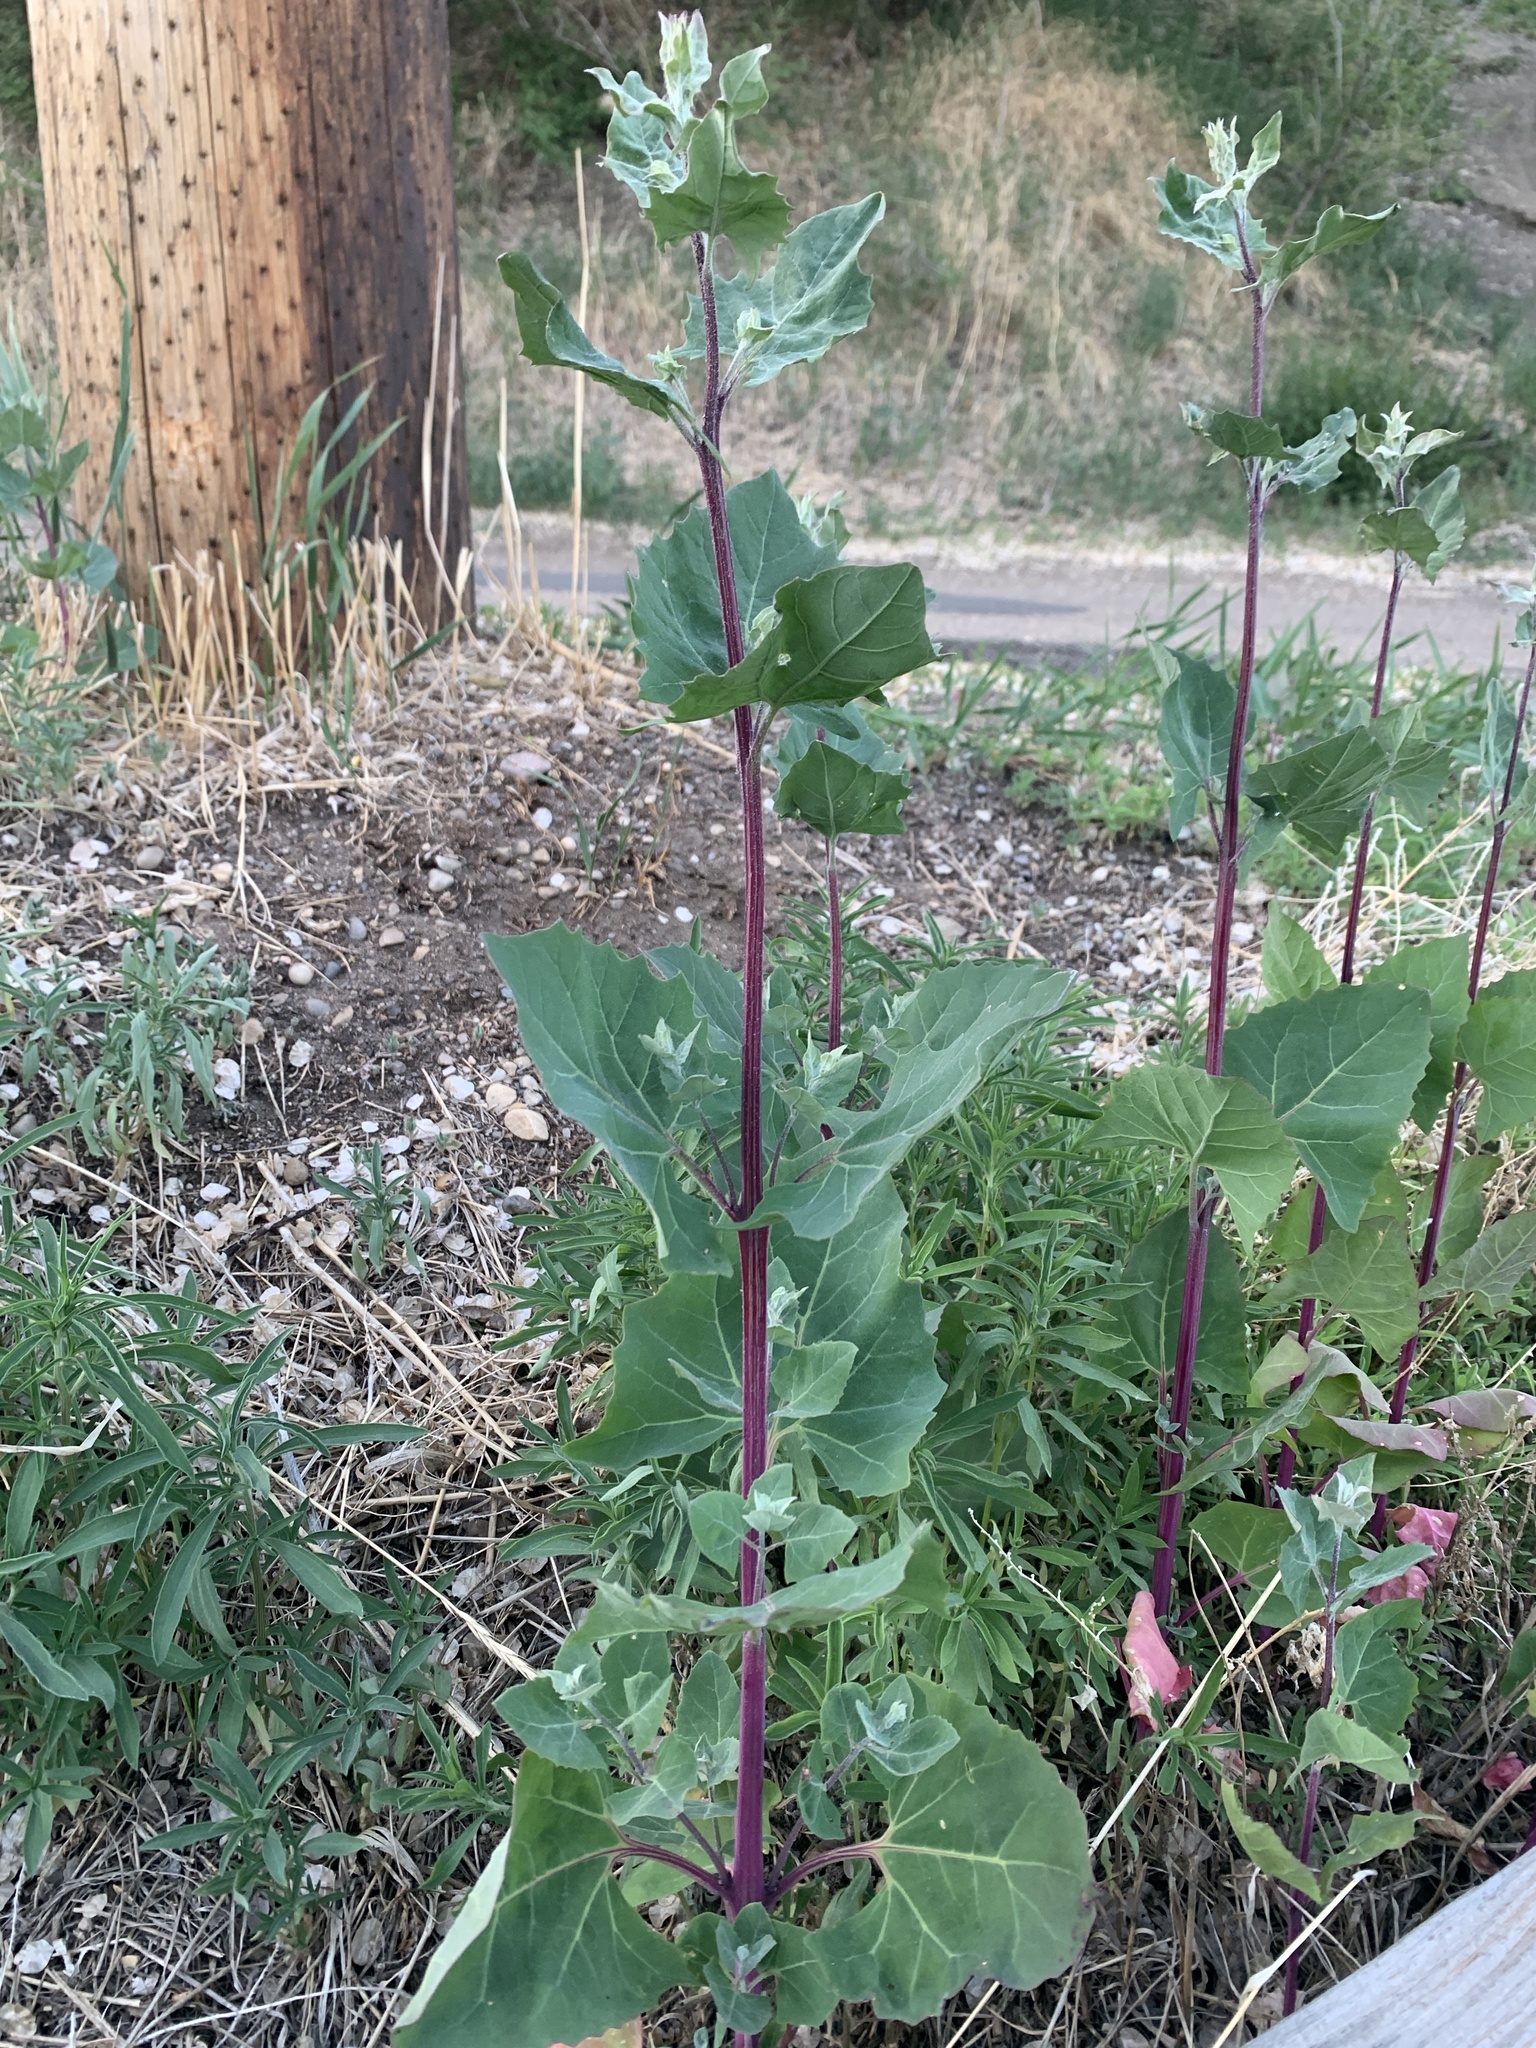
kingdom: Plantae
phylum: Tracheophyta
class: Magnoliopsida
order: Caryophyllales
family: Amaranthaceae
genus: Atriplex
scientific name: Atriplex hortensis
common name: Garden orache
